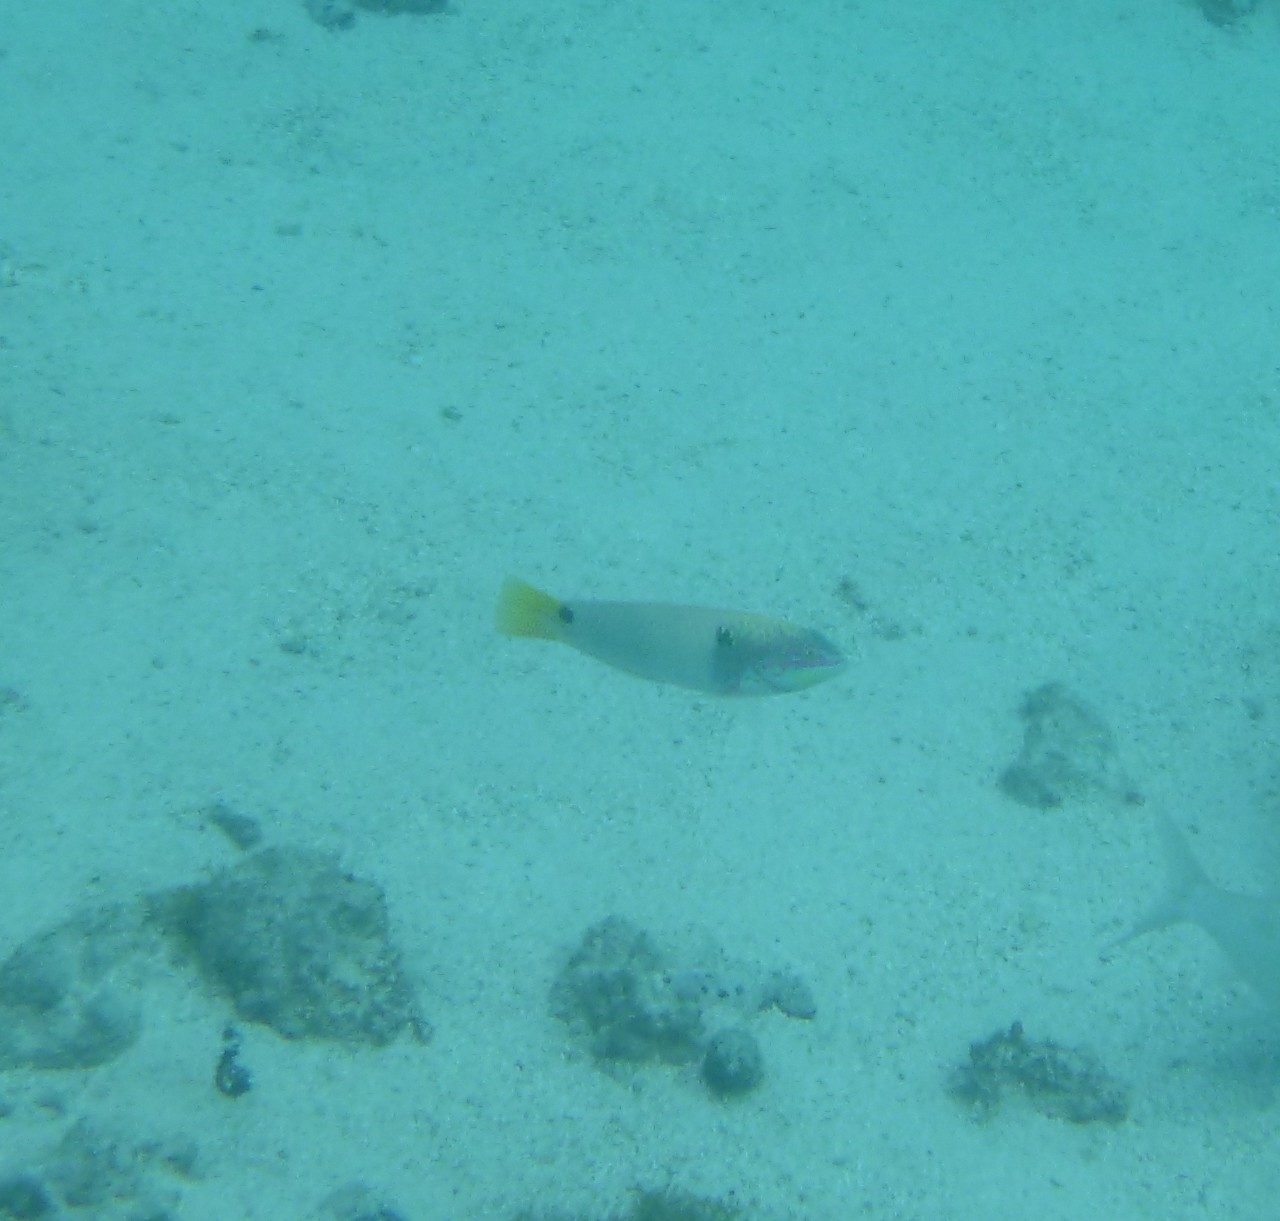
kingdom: Animalia
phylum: Chordata
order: Perciformes
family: Labridae
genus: Halichoeres
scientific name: Halichoeres trimaculatus
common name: Three-spot wrasse
